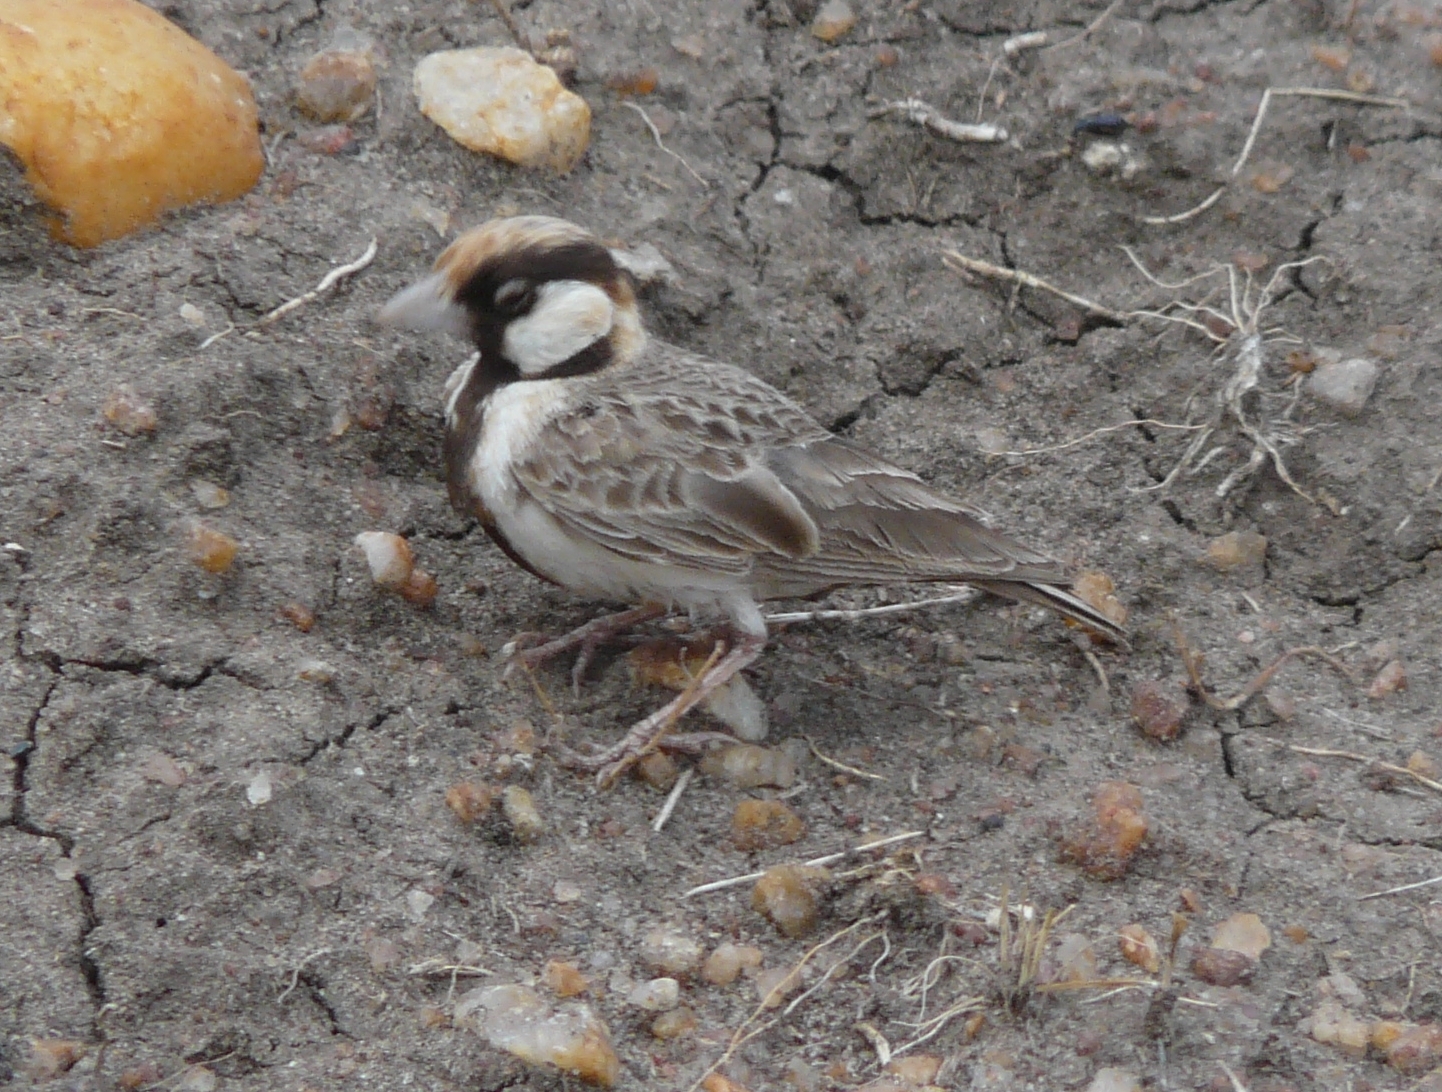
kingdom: Animalia
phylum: Chordata
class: Aves
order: Passeriformes
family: Alaudidae
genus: Eremopterix
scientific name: Eremopterix leucopareia
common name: Fischer's sparrow-lark
